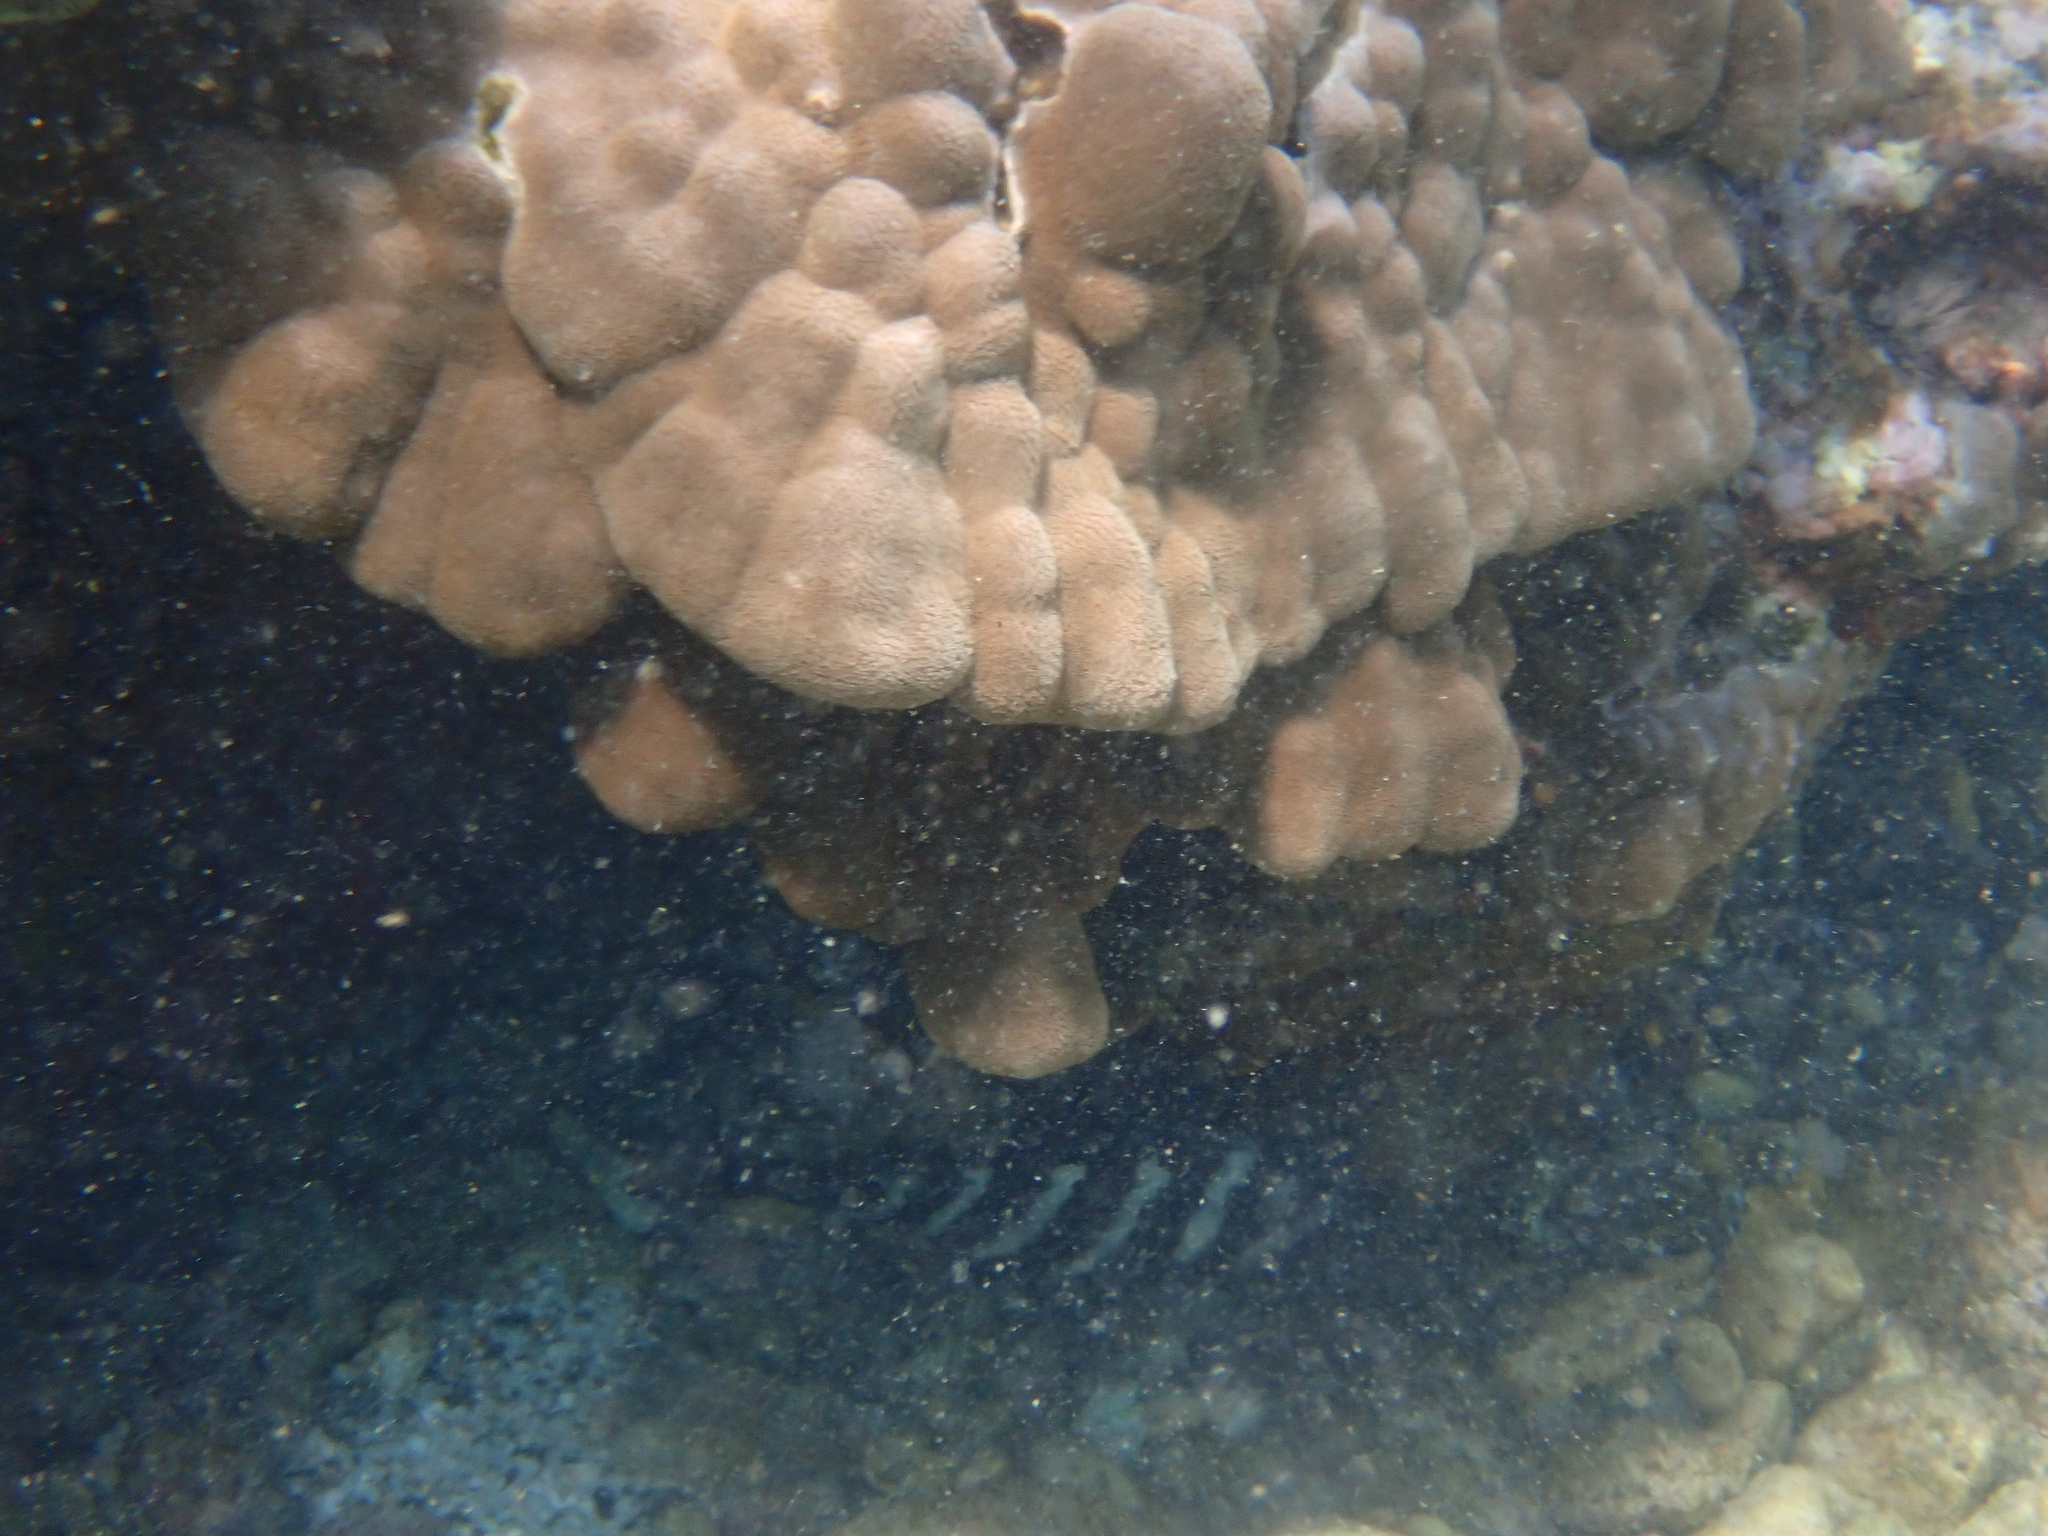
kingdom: Animalia
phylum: Chordata
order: Perciformes
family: Pomacentridae
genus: Abudefduf
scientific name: Abudefduf sordidus
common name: Blackspot sergeant
